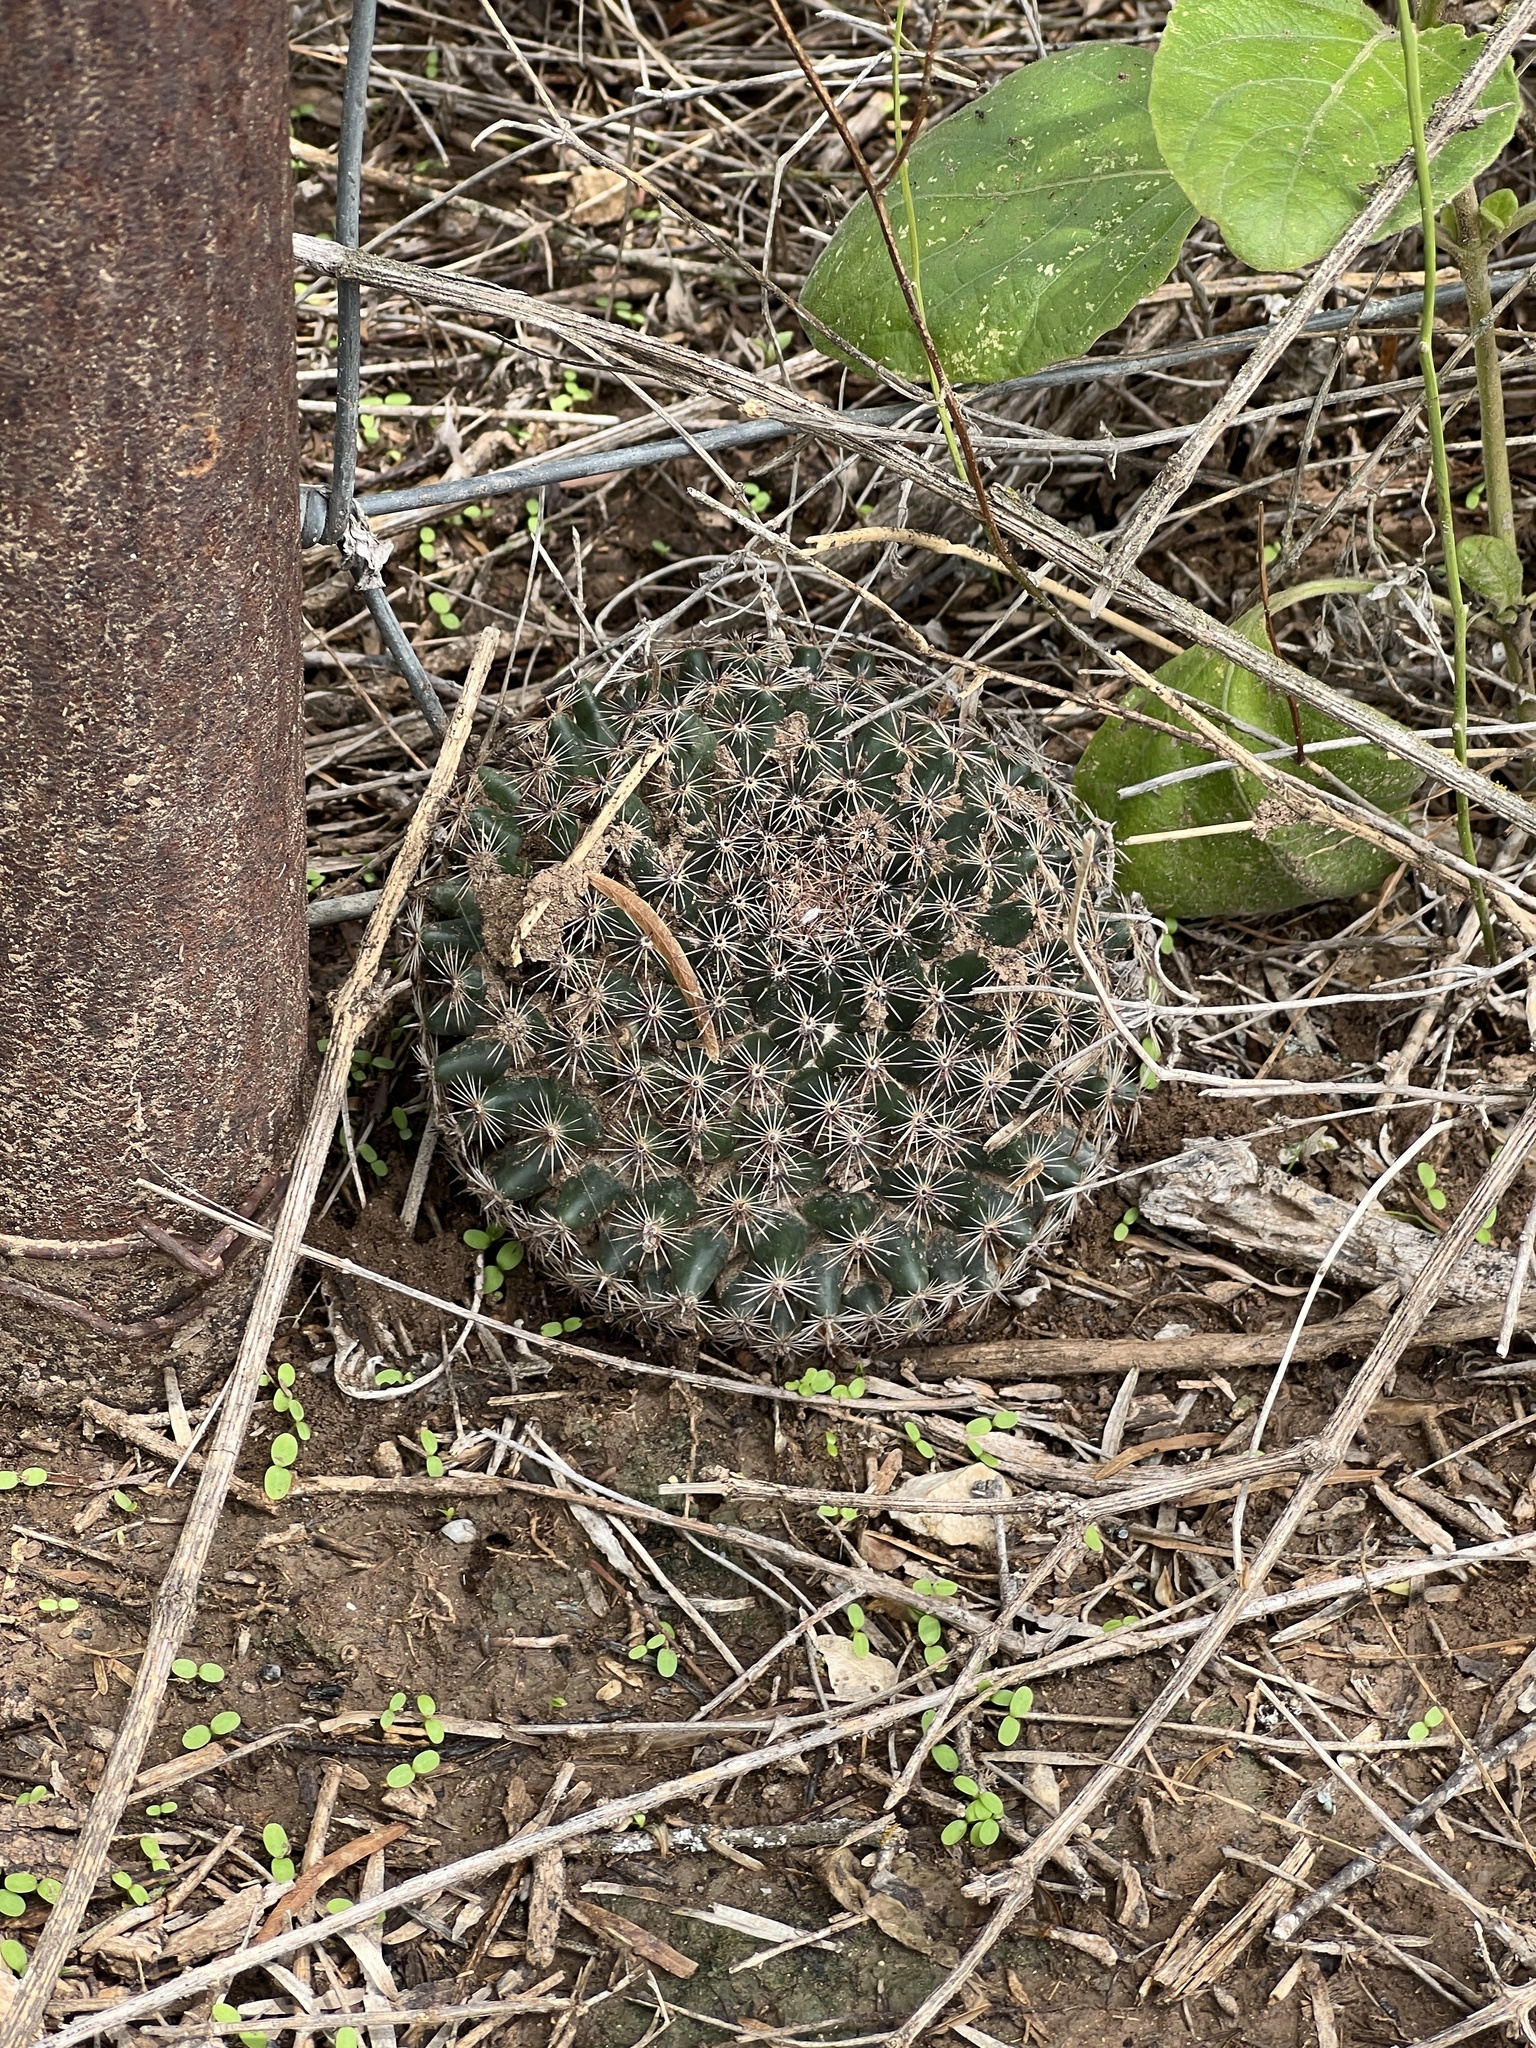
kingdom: Plantae
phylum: Tracheophyta
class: Magnoliopsida
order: Caryophyllales
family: Cactaceae
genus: Mammillaria
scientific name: Mammillaria heyderi
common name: Little nipple cactus
